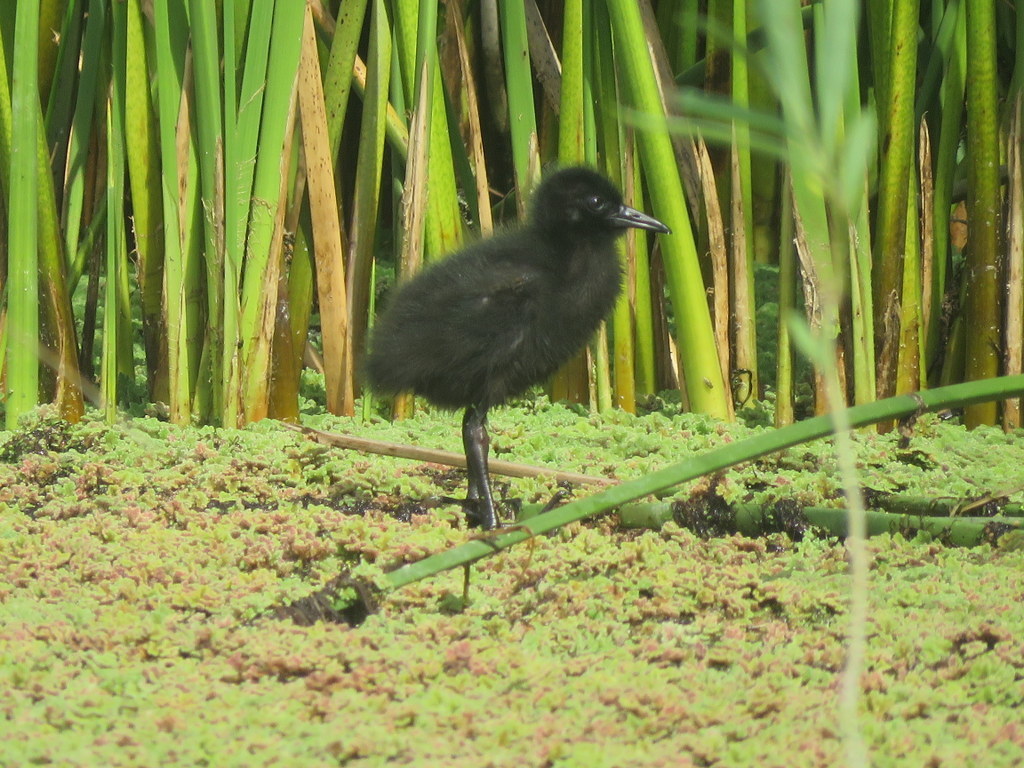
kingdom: Animalia
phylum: Chordata
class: Aves
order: Gruiformes
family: Rallidae
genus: Pardirallus
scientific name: Pardirallus sanguinolentus
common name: Plumbeous rail
